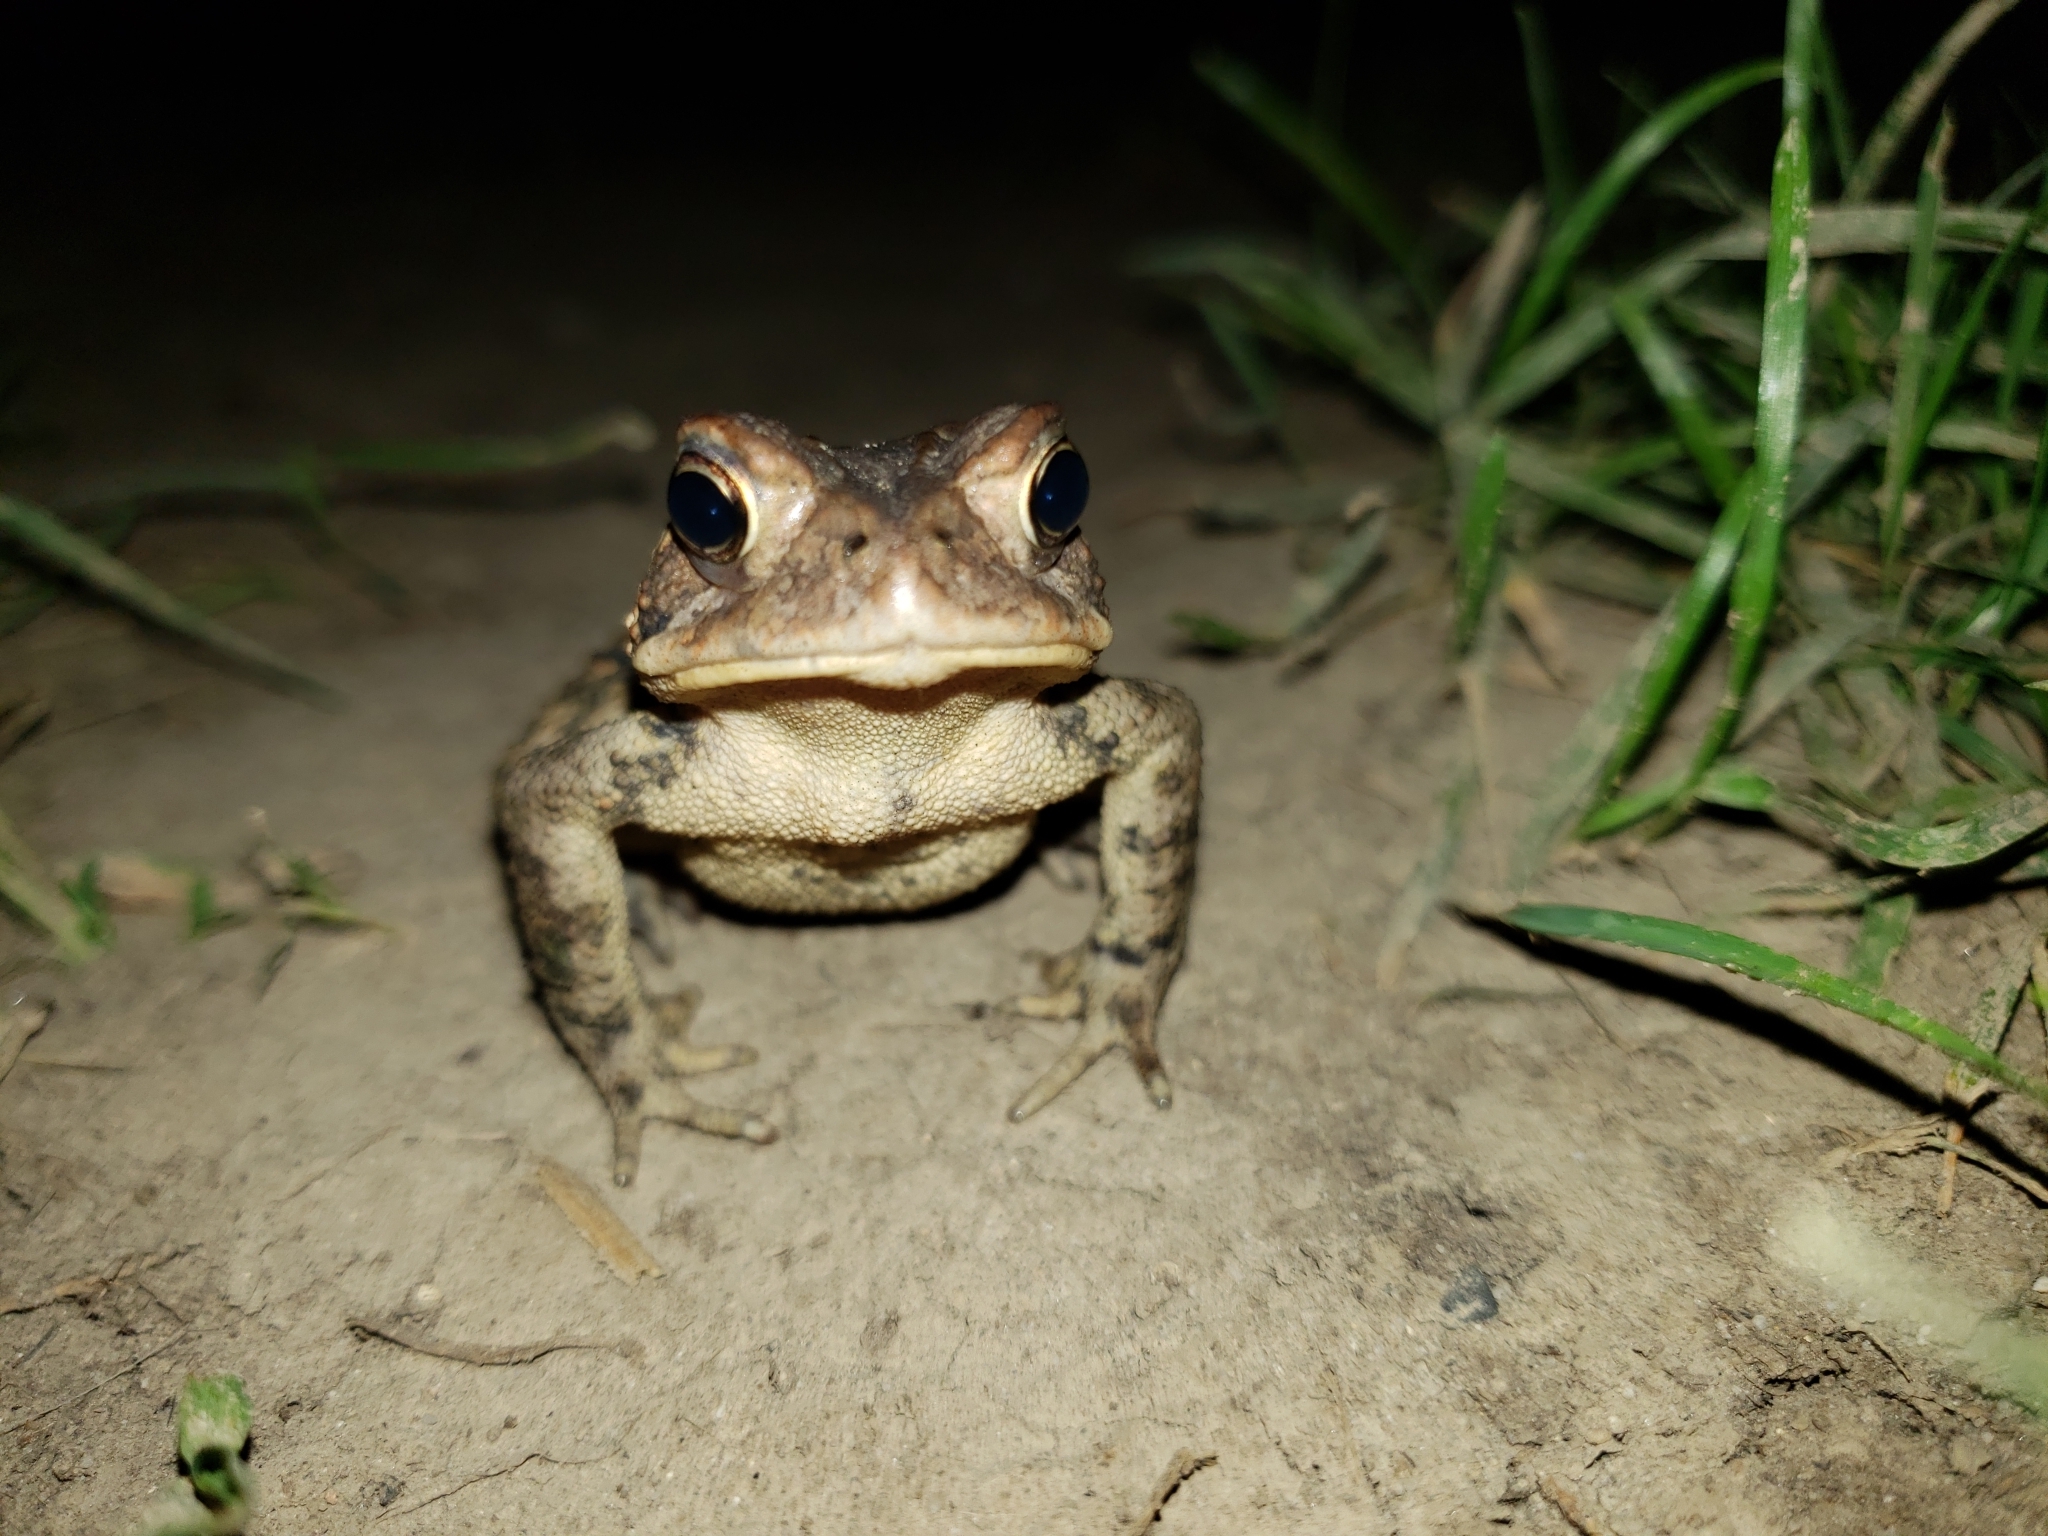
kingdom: Animalia
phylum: Chordata
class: Amphibia
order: Anura
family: Bufonidae
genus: Anaxyrus
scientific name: Anaxyrus americanus
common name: American toad
